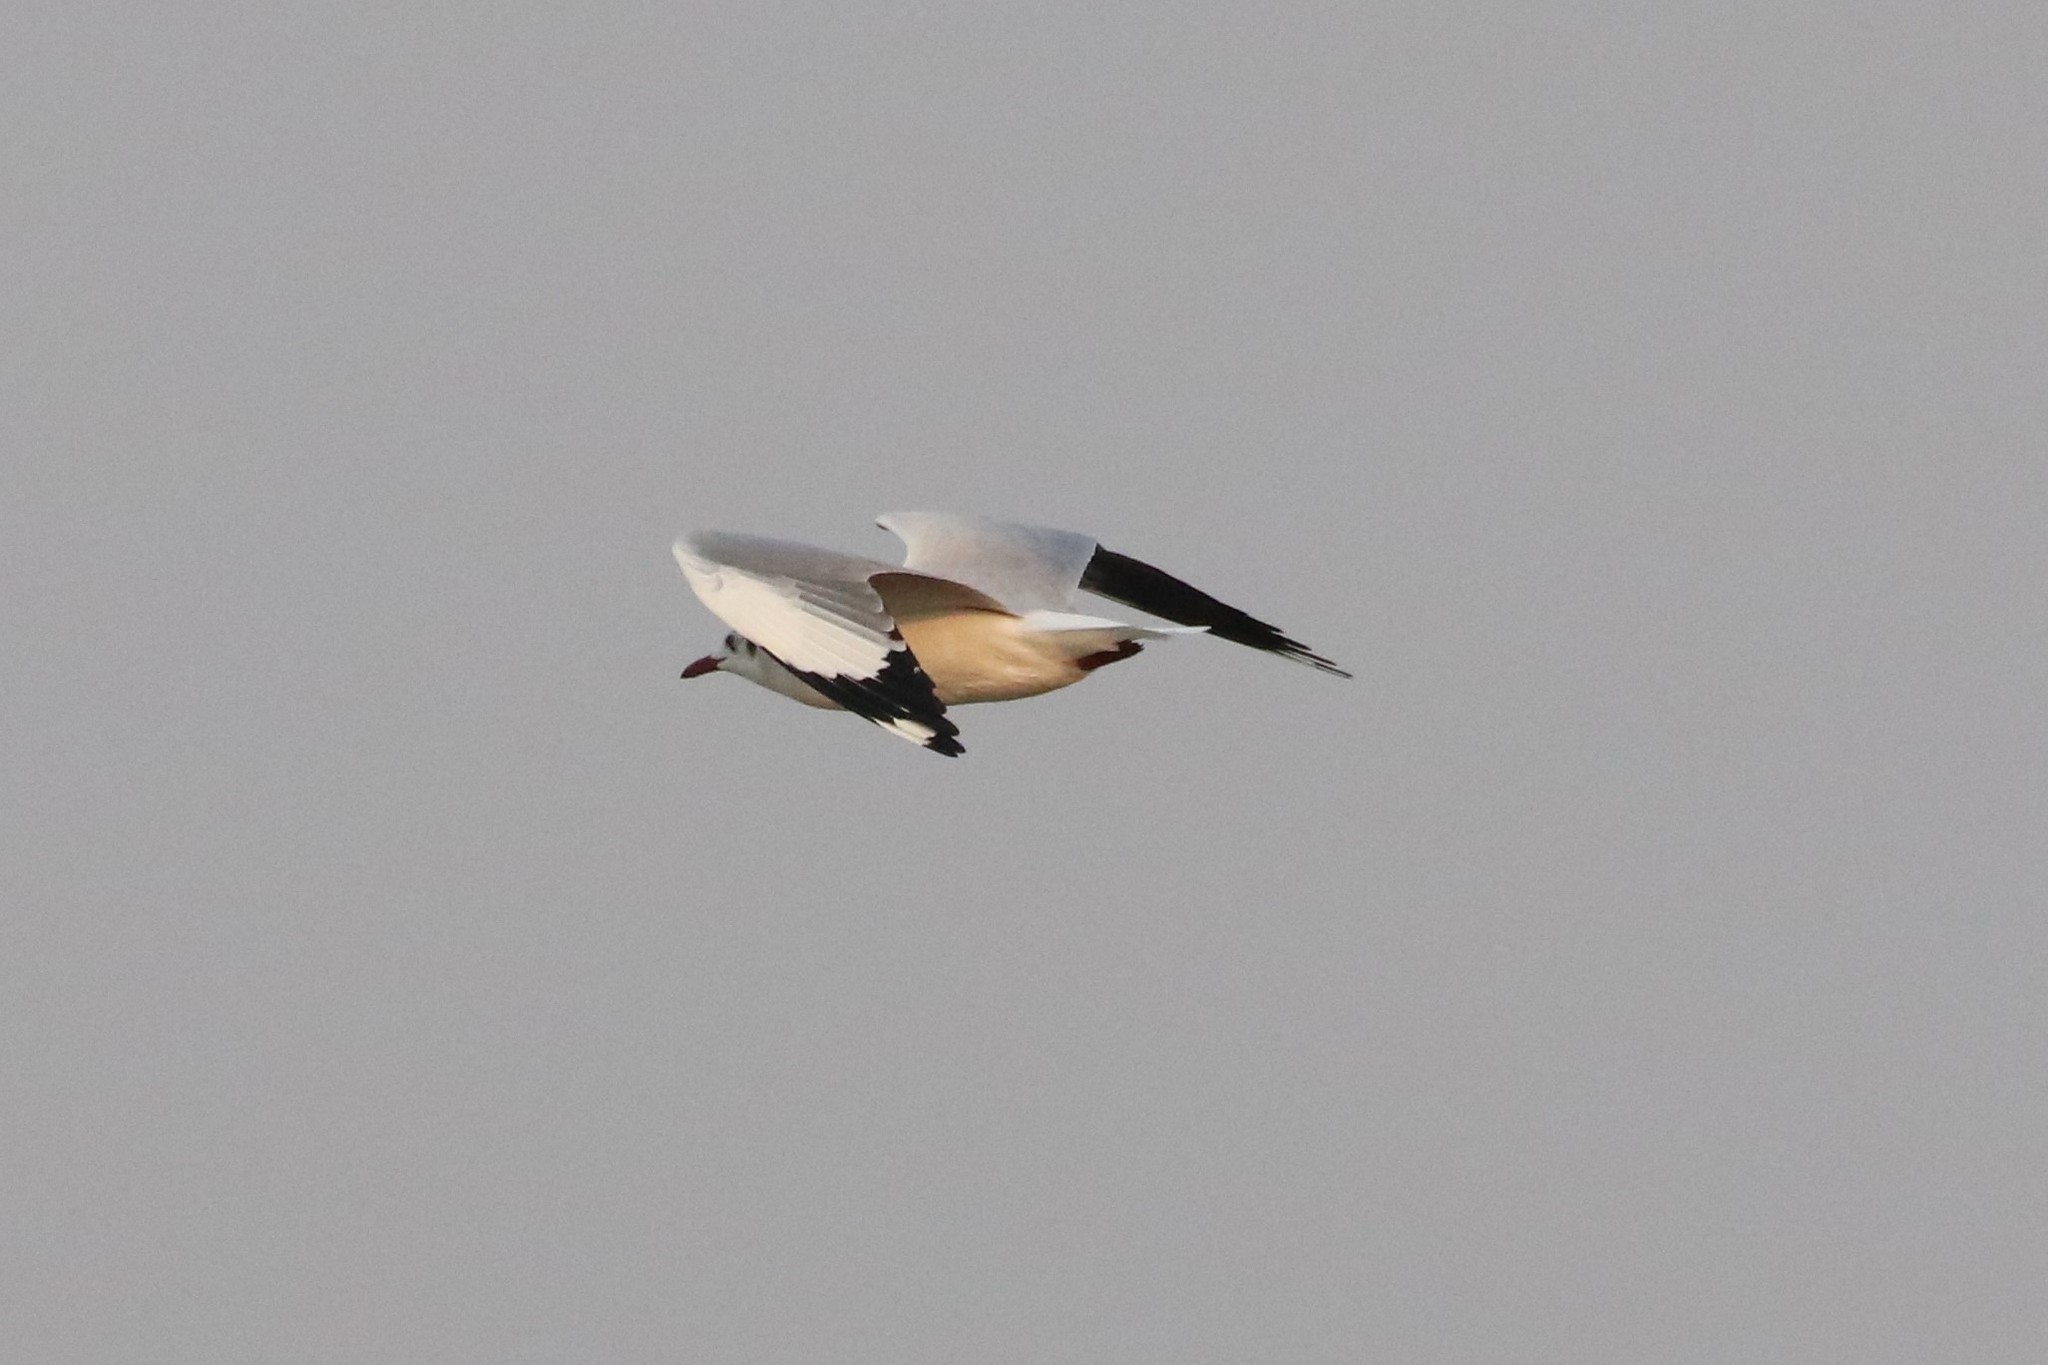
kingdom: Animalia
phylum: Chordata
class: Aves
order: Charadriiformes
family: Laridae
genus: Chroicocephalus
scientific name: Chroicocephalus brunnicephalus
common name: Brown-headed gull
